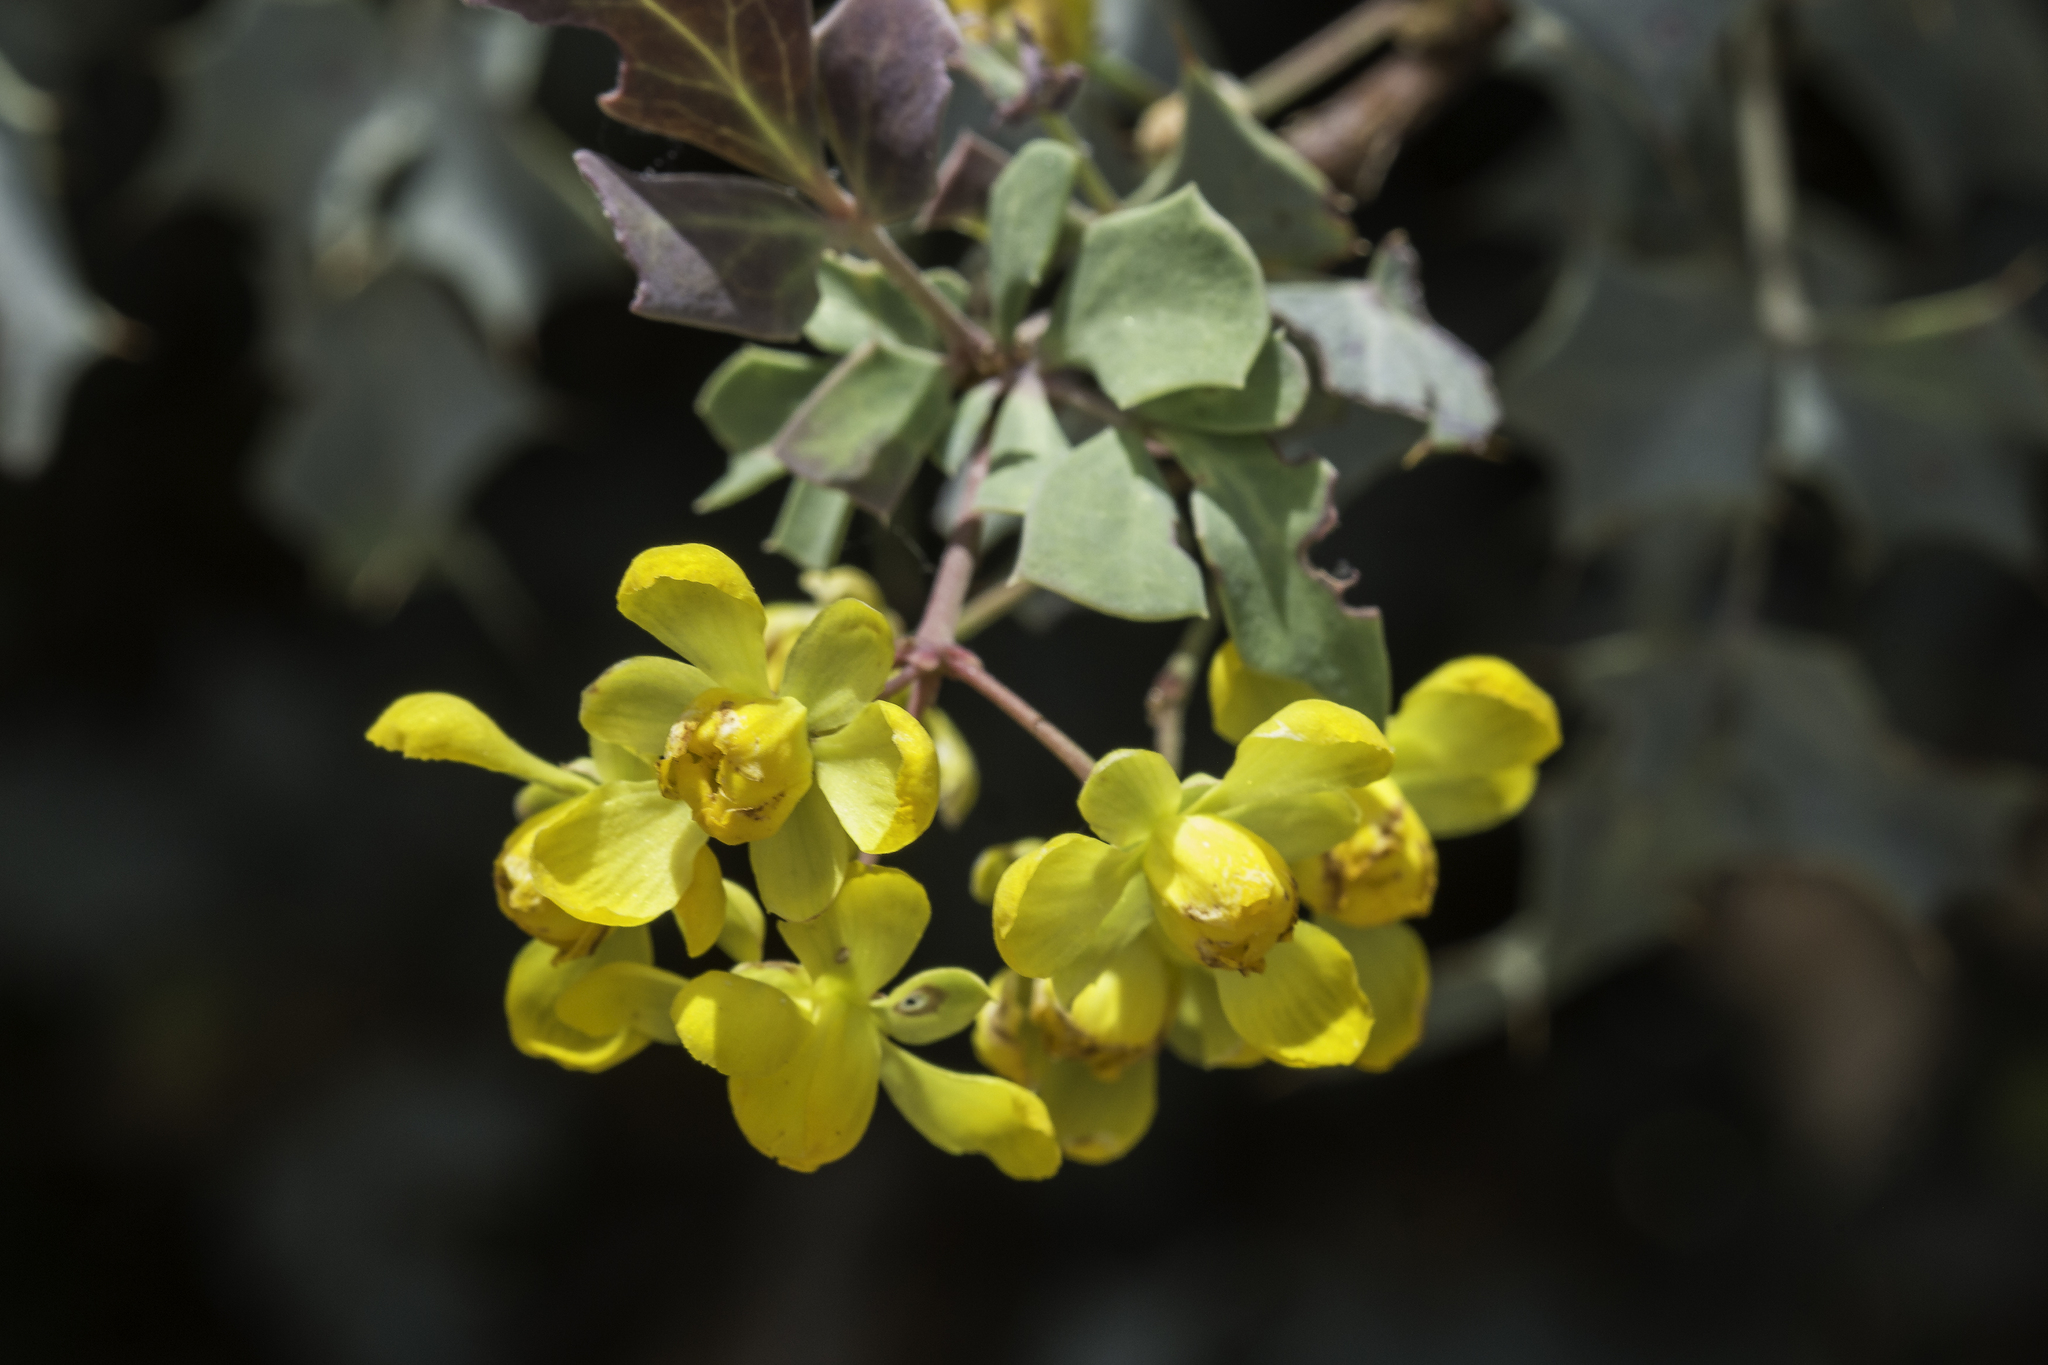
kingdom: Plantae
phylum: Tracheophyta
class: Magnoliopsida
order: Ranunculales
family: Berberidaceae
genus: Alloberberis
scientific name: Alloberberis haematocarpa
